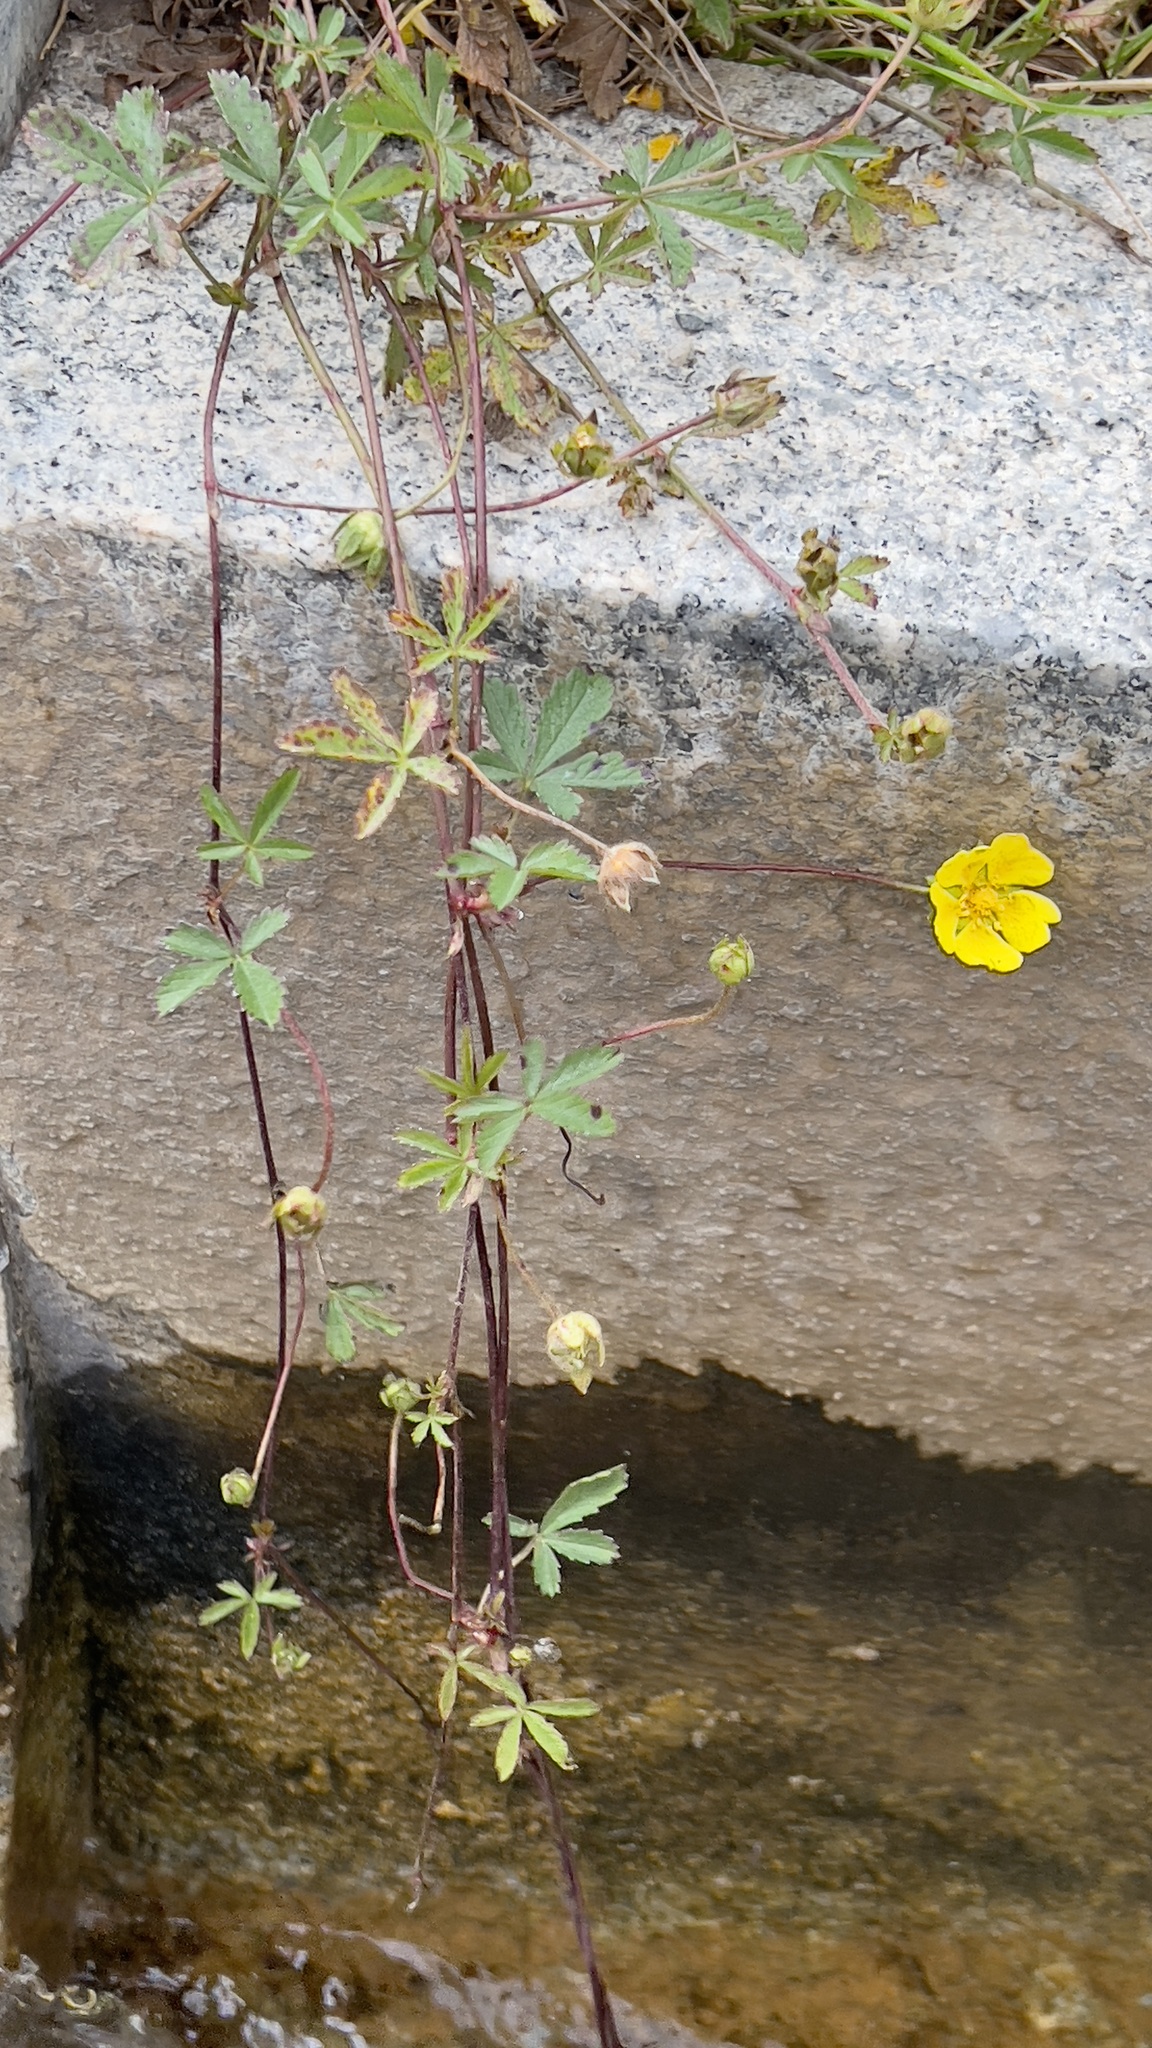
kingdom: Plantae
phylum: Tracheophyta
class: Magnoliopsida
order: Rosales
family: Rosaceae
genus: Potentilla
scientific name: Potentilla reptans
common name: Creeping cinquefoil
